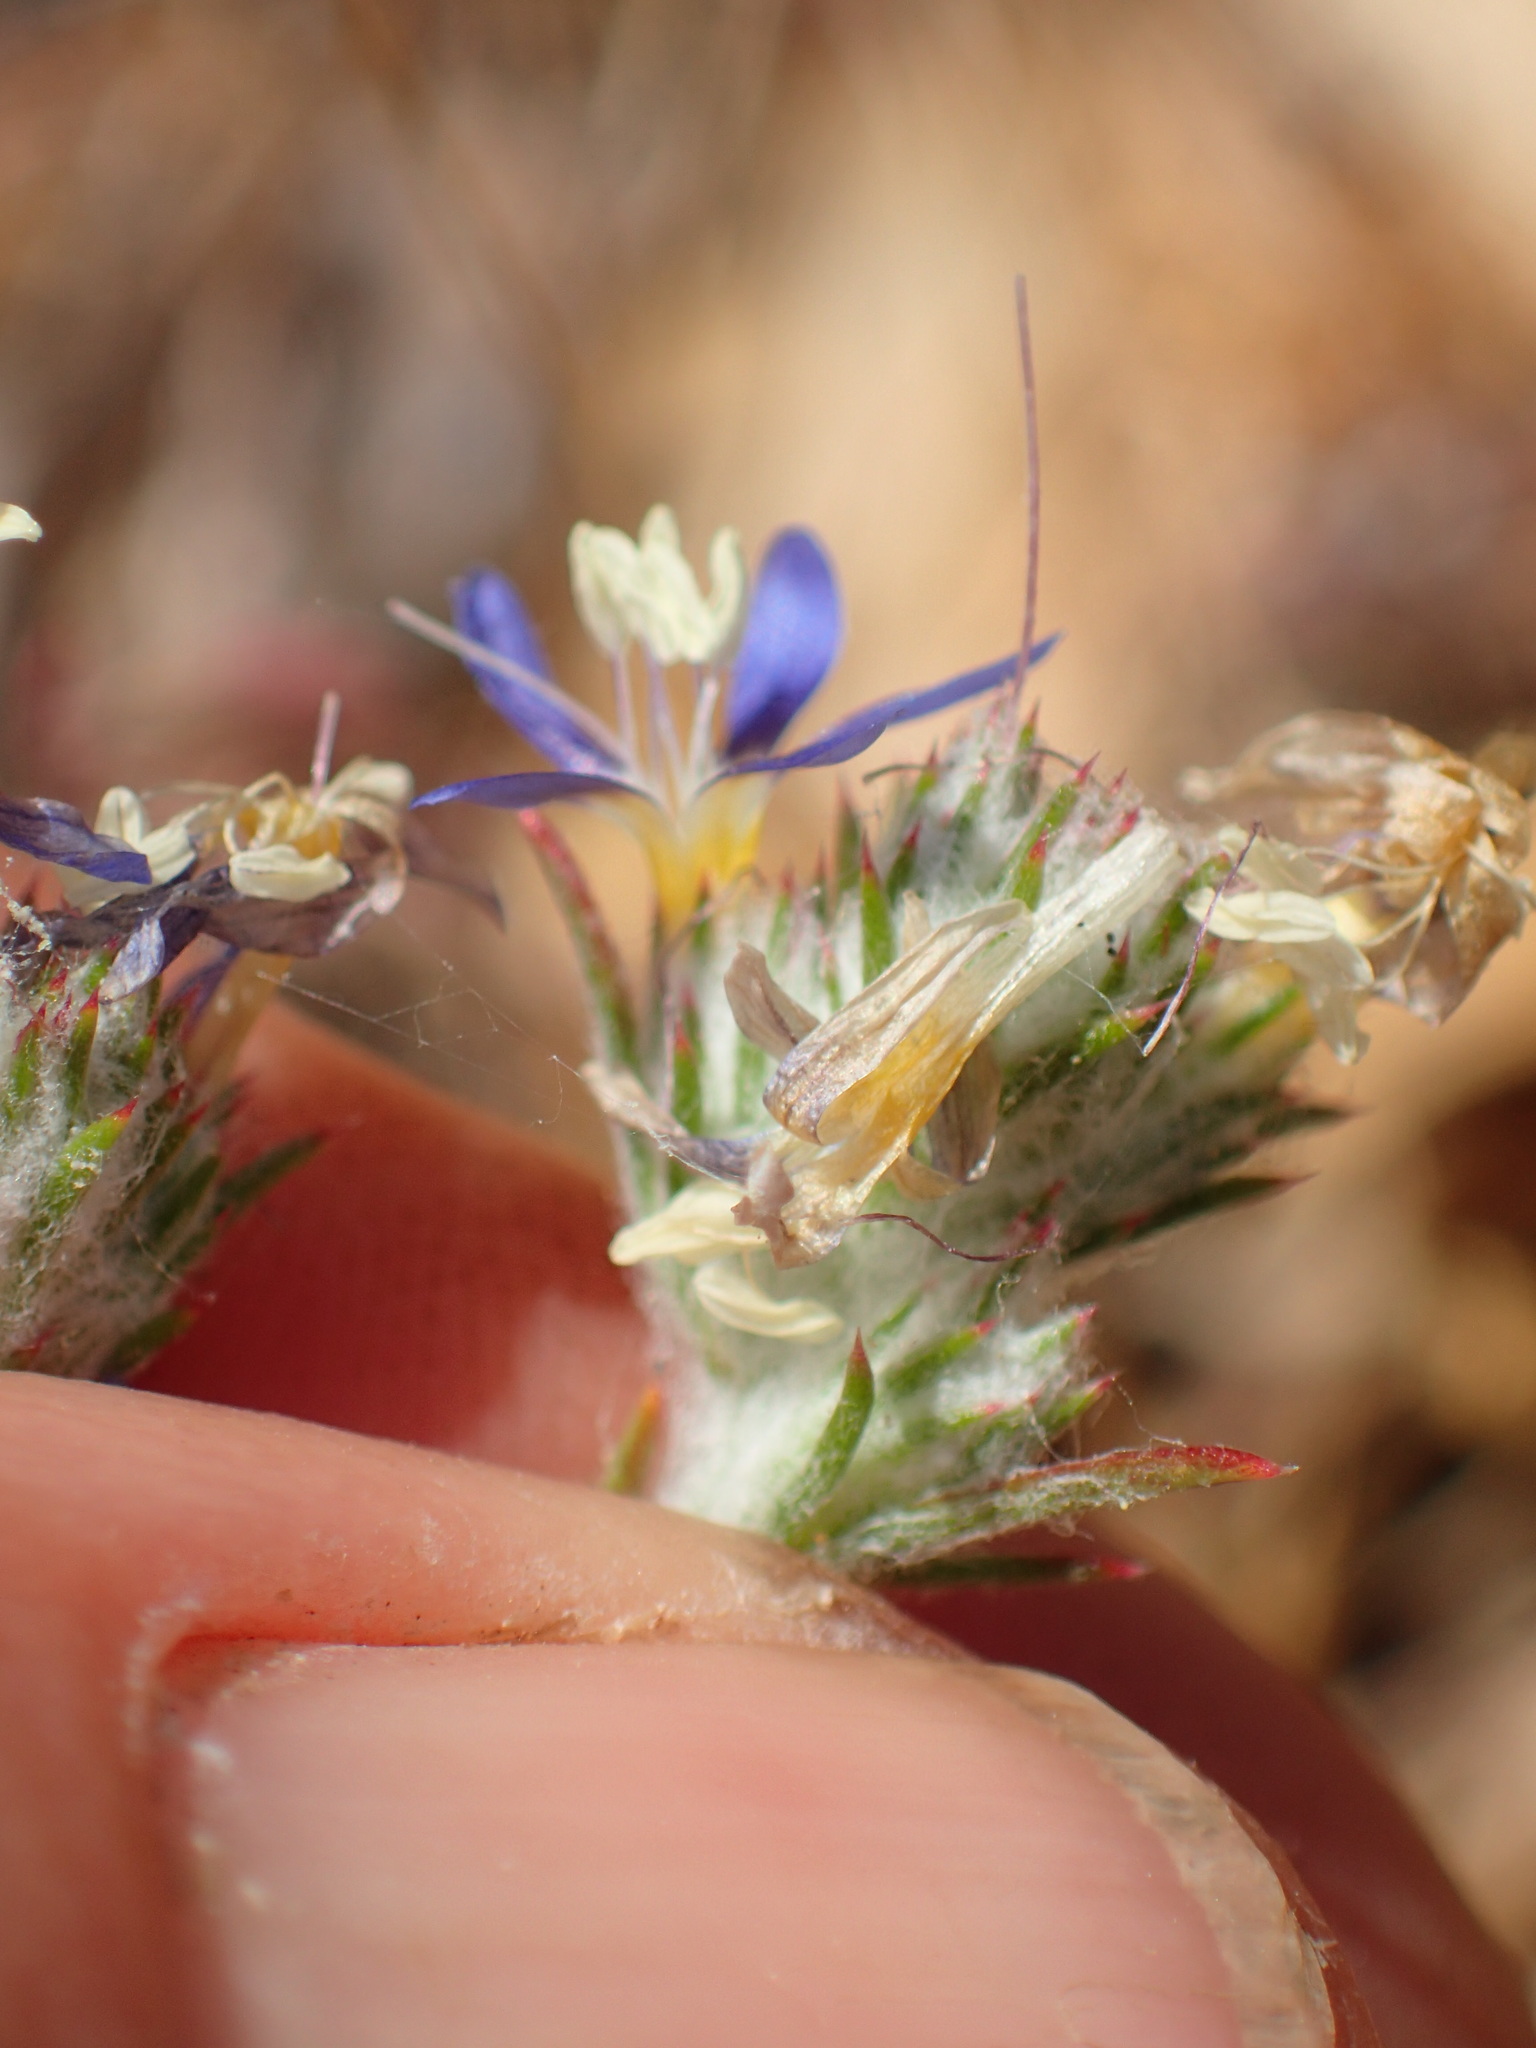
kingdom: Plantae
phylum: Tracheophyta
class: Magnoliopsida
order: Ericales
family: Polemoniaceae
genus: Eriastrum
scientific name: Eriastrum sapphirinum
